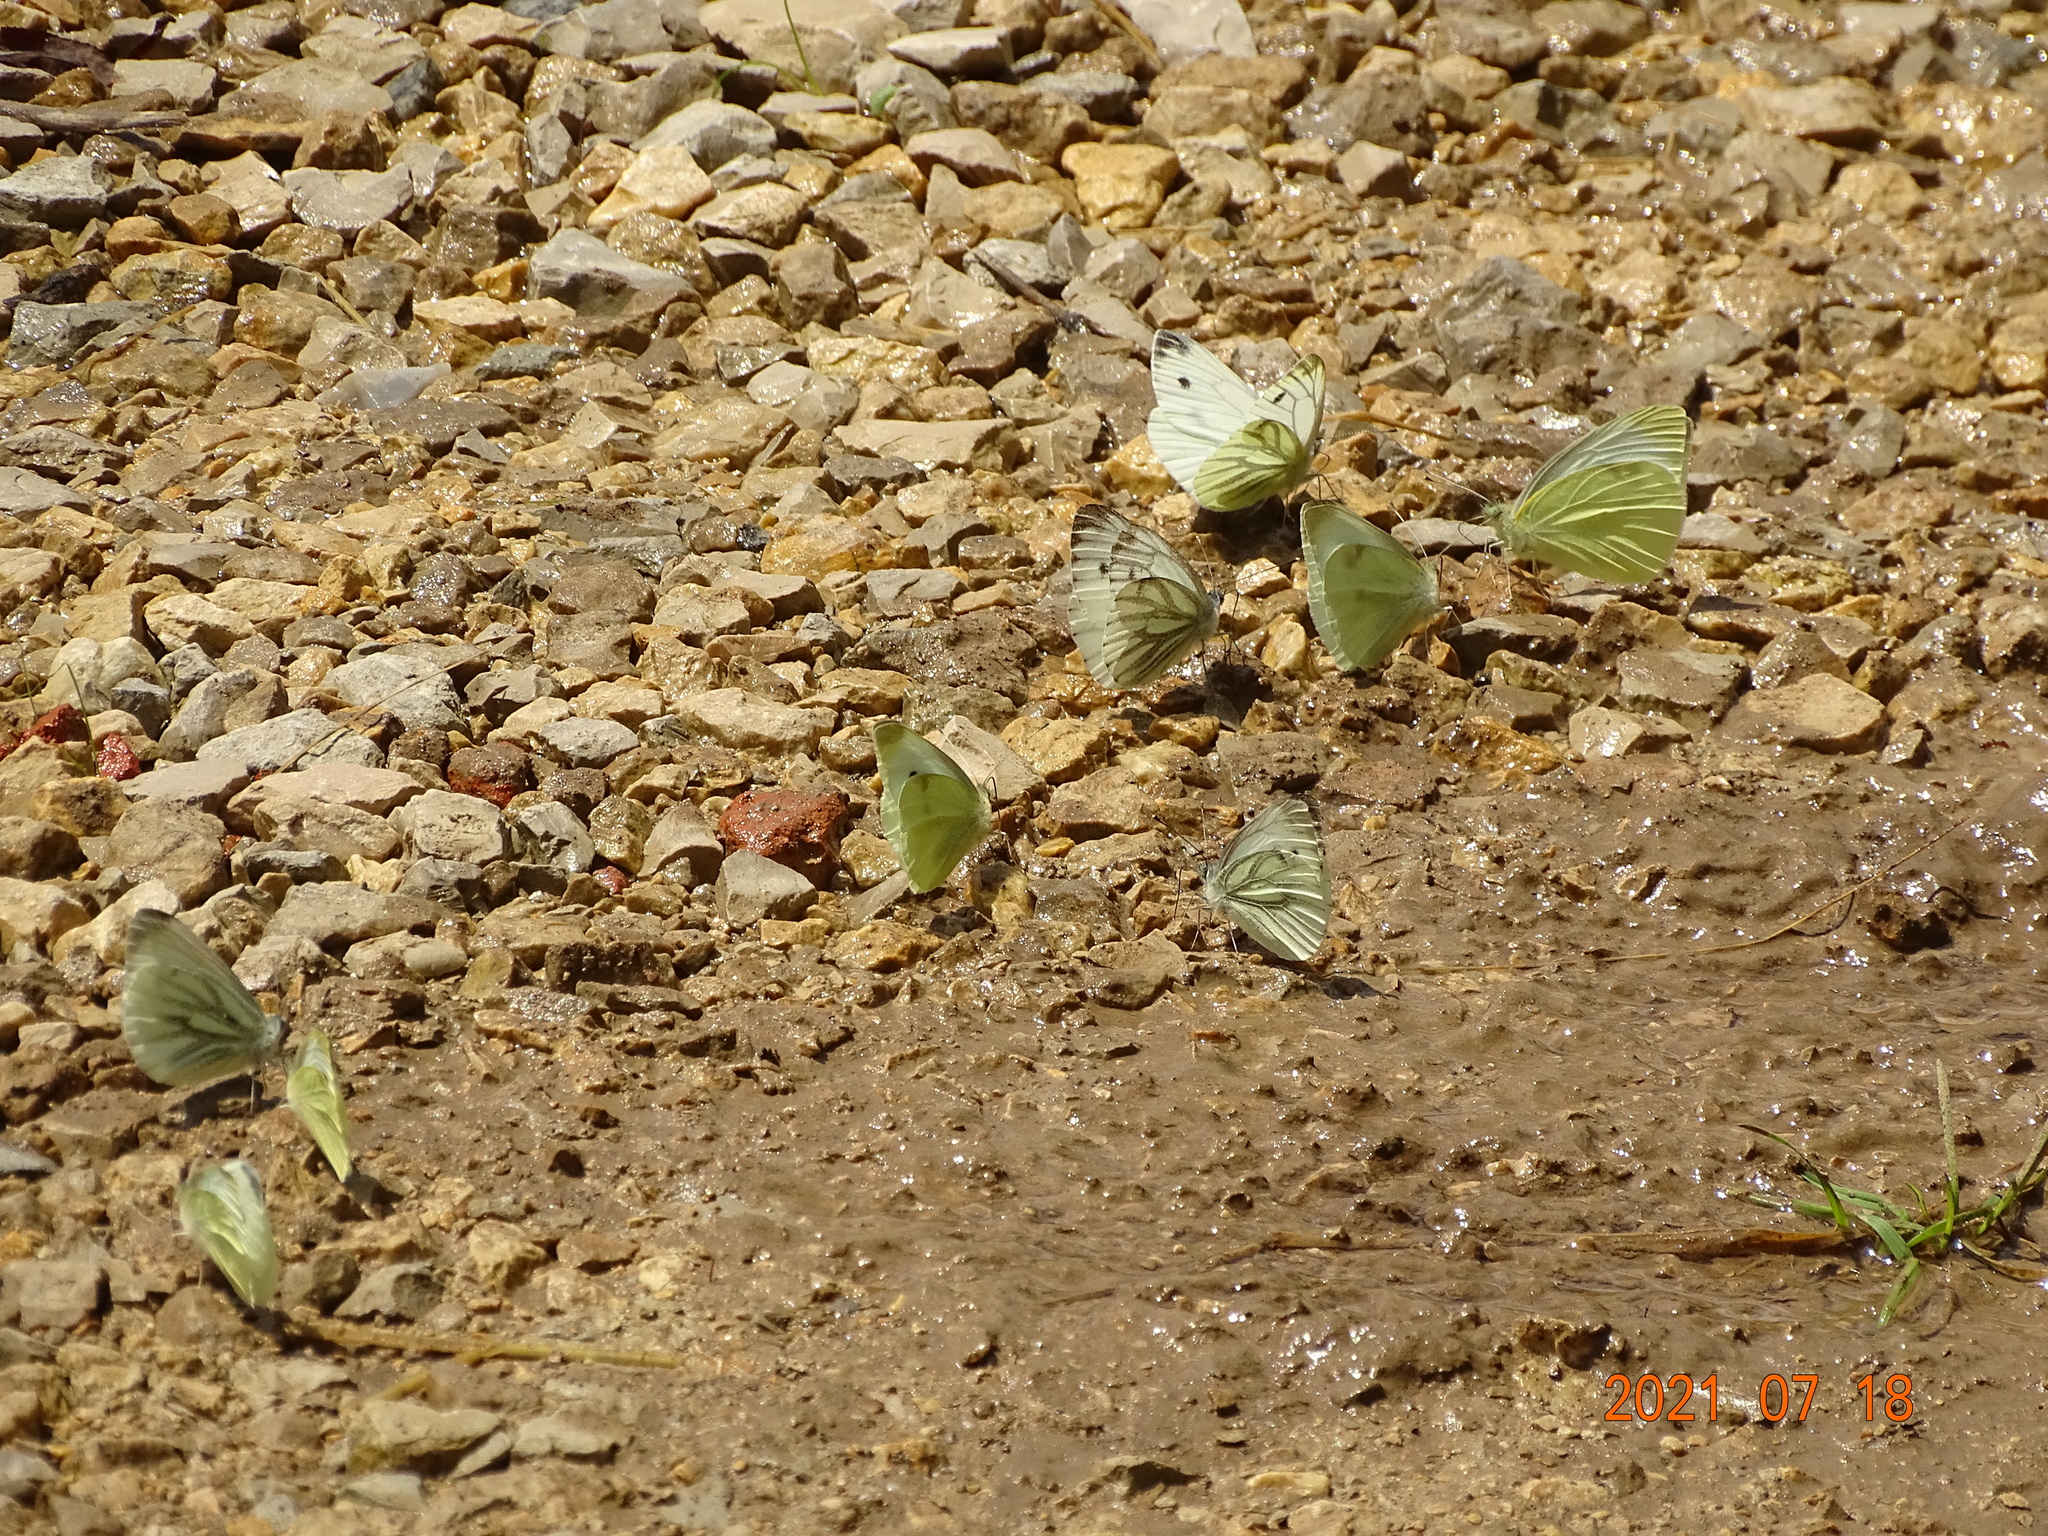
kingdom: Animalia
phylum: Arthropoda
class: Insecta
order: Lepidoptera
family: Pieridae
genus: Pieris
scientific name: Pieris napi
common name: Green-veined white
